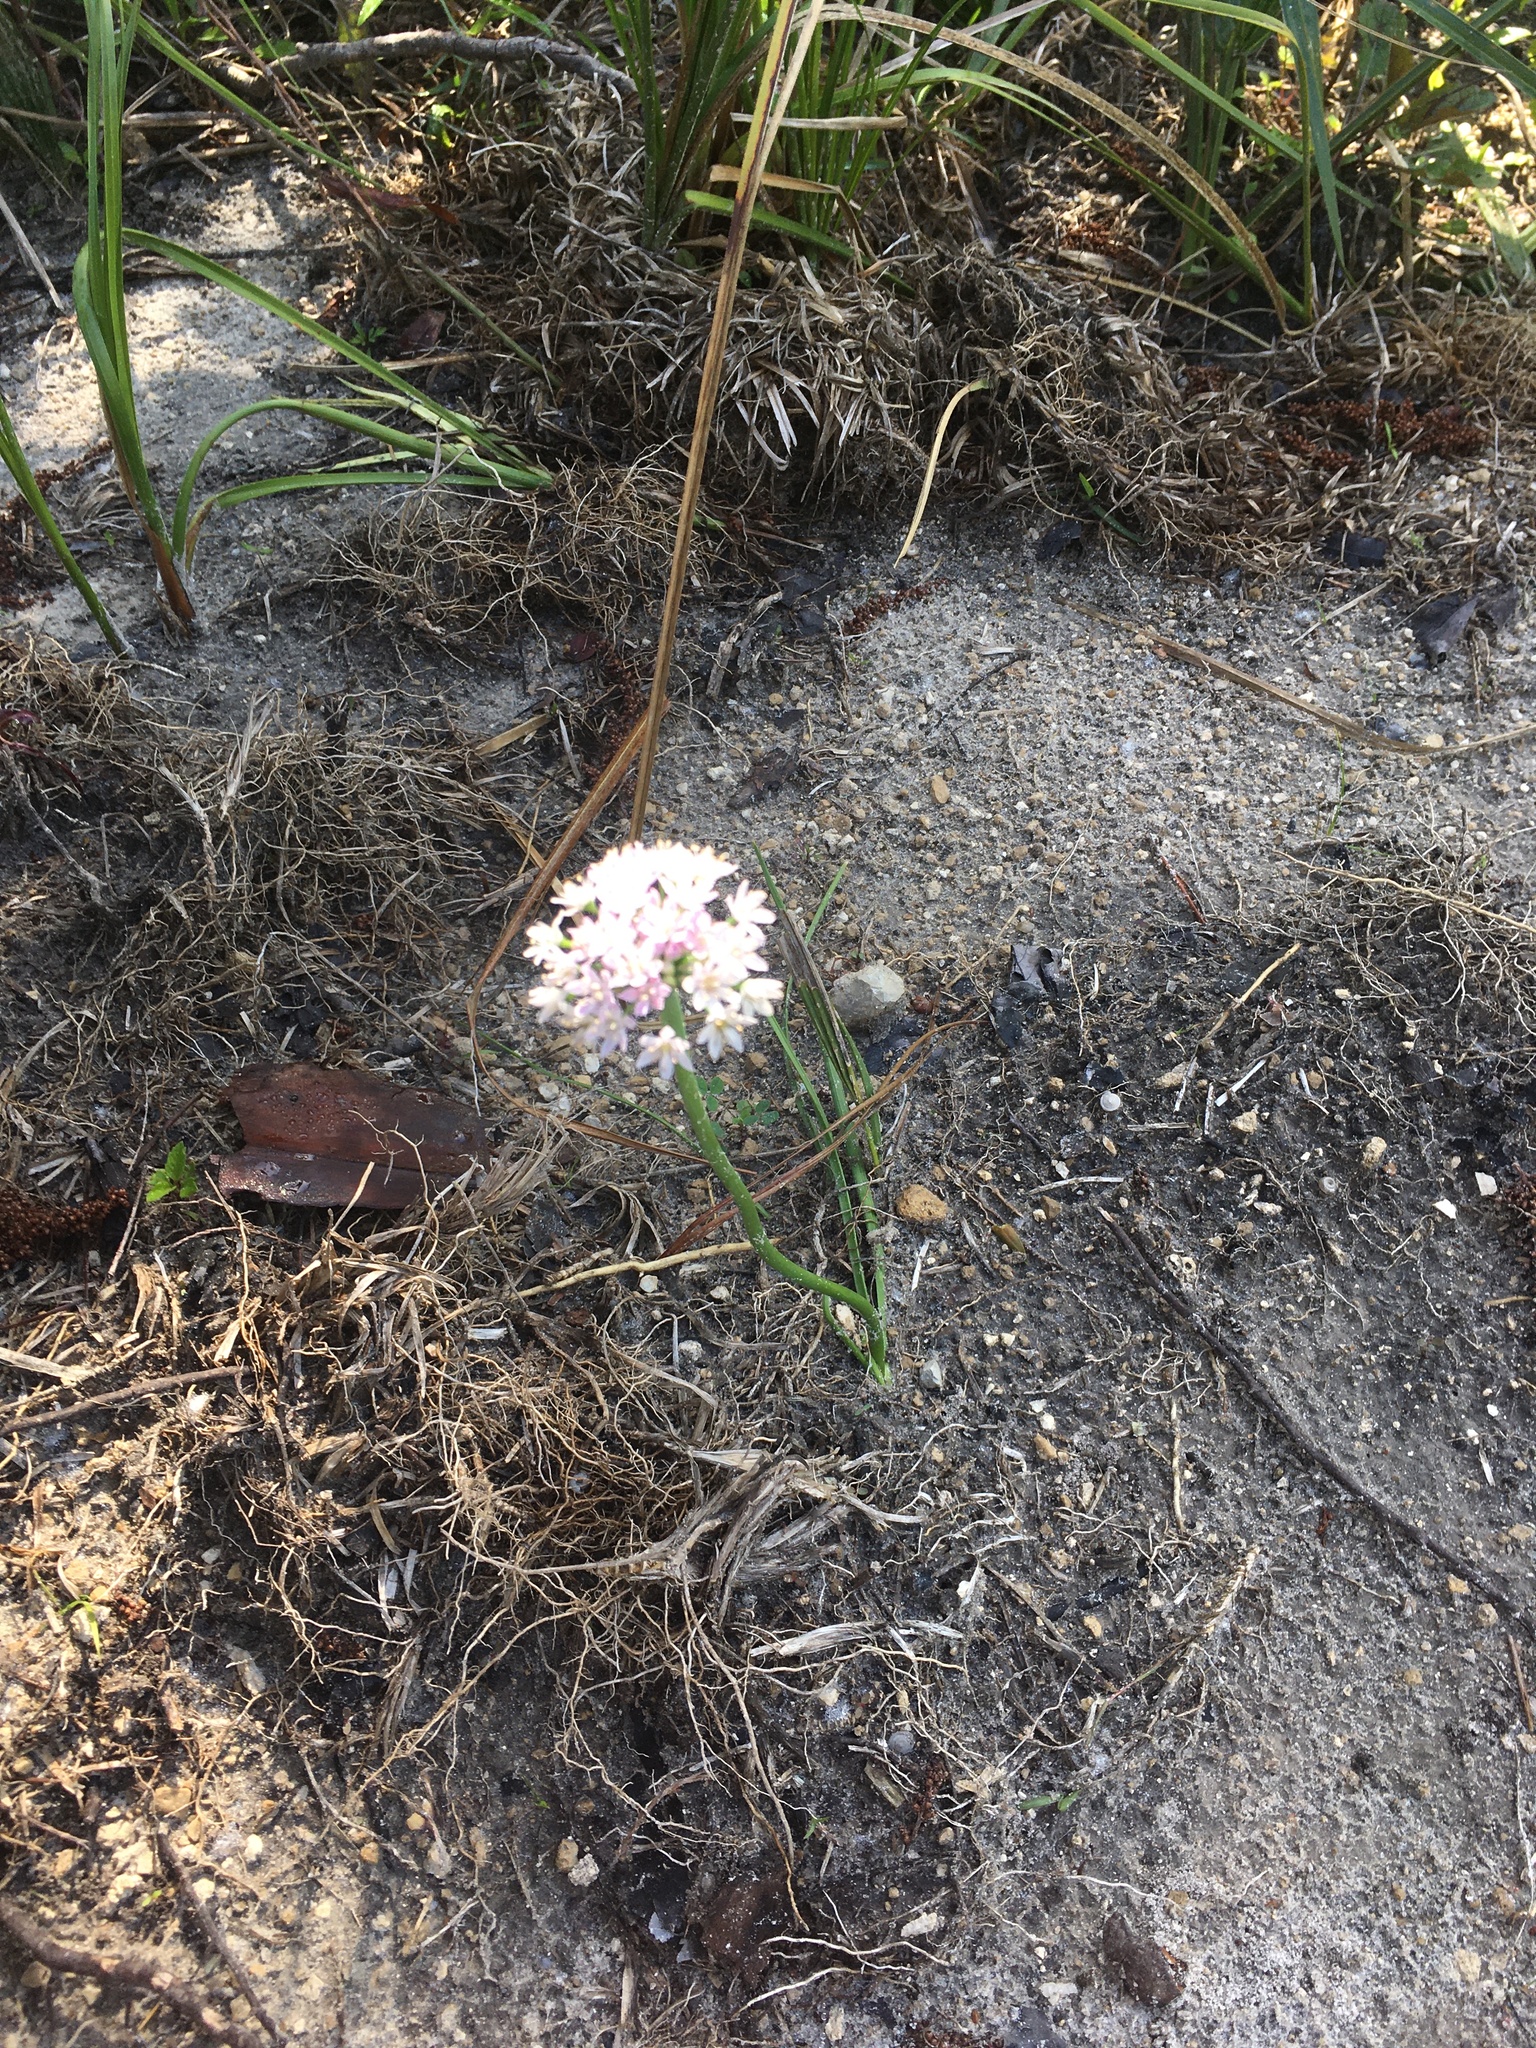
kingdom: Plantae
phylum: Tracheophyta
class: Liliopsida
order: Asparagales
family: Amaryllidaceae
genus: Allium
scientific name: Allium canadense
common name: Meadow garlic
